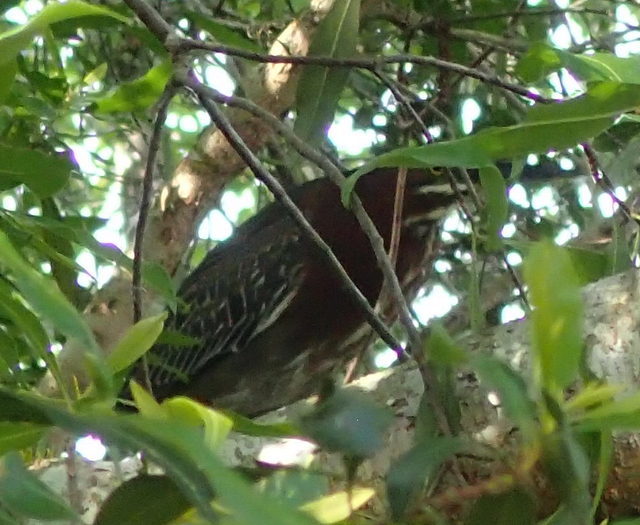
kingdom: Animalia
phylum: Chordata
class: Aves
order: Pelecaniformes
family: Ardeidae
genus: Butorides
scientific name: Butorides virescens
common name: Green heron
